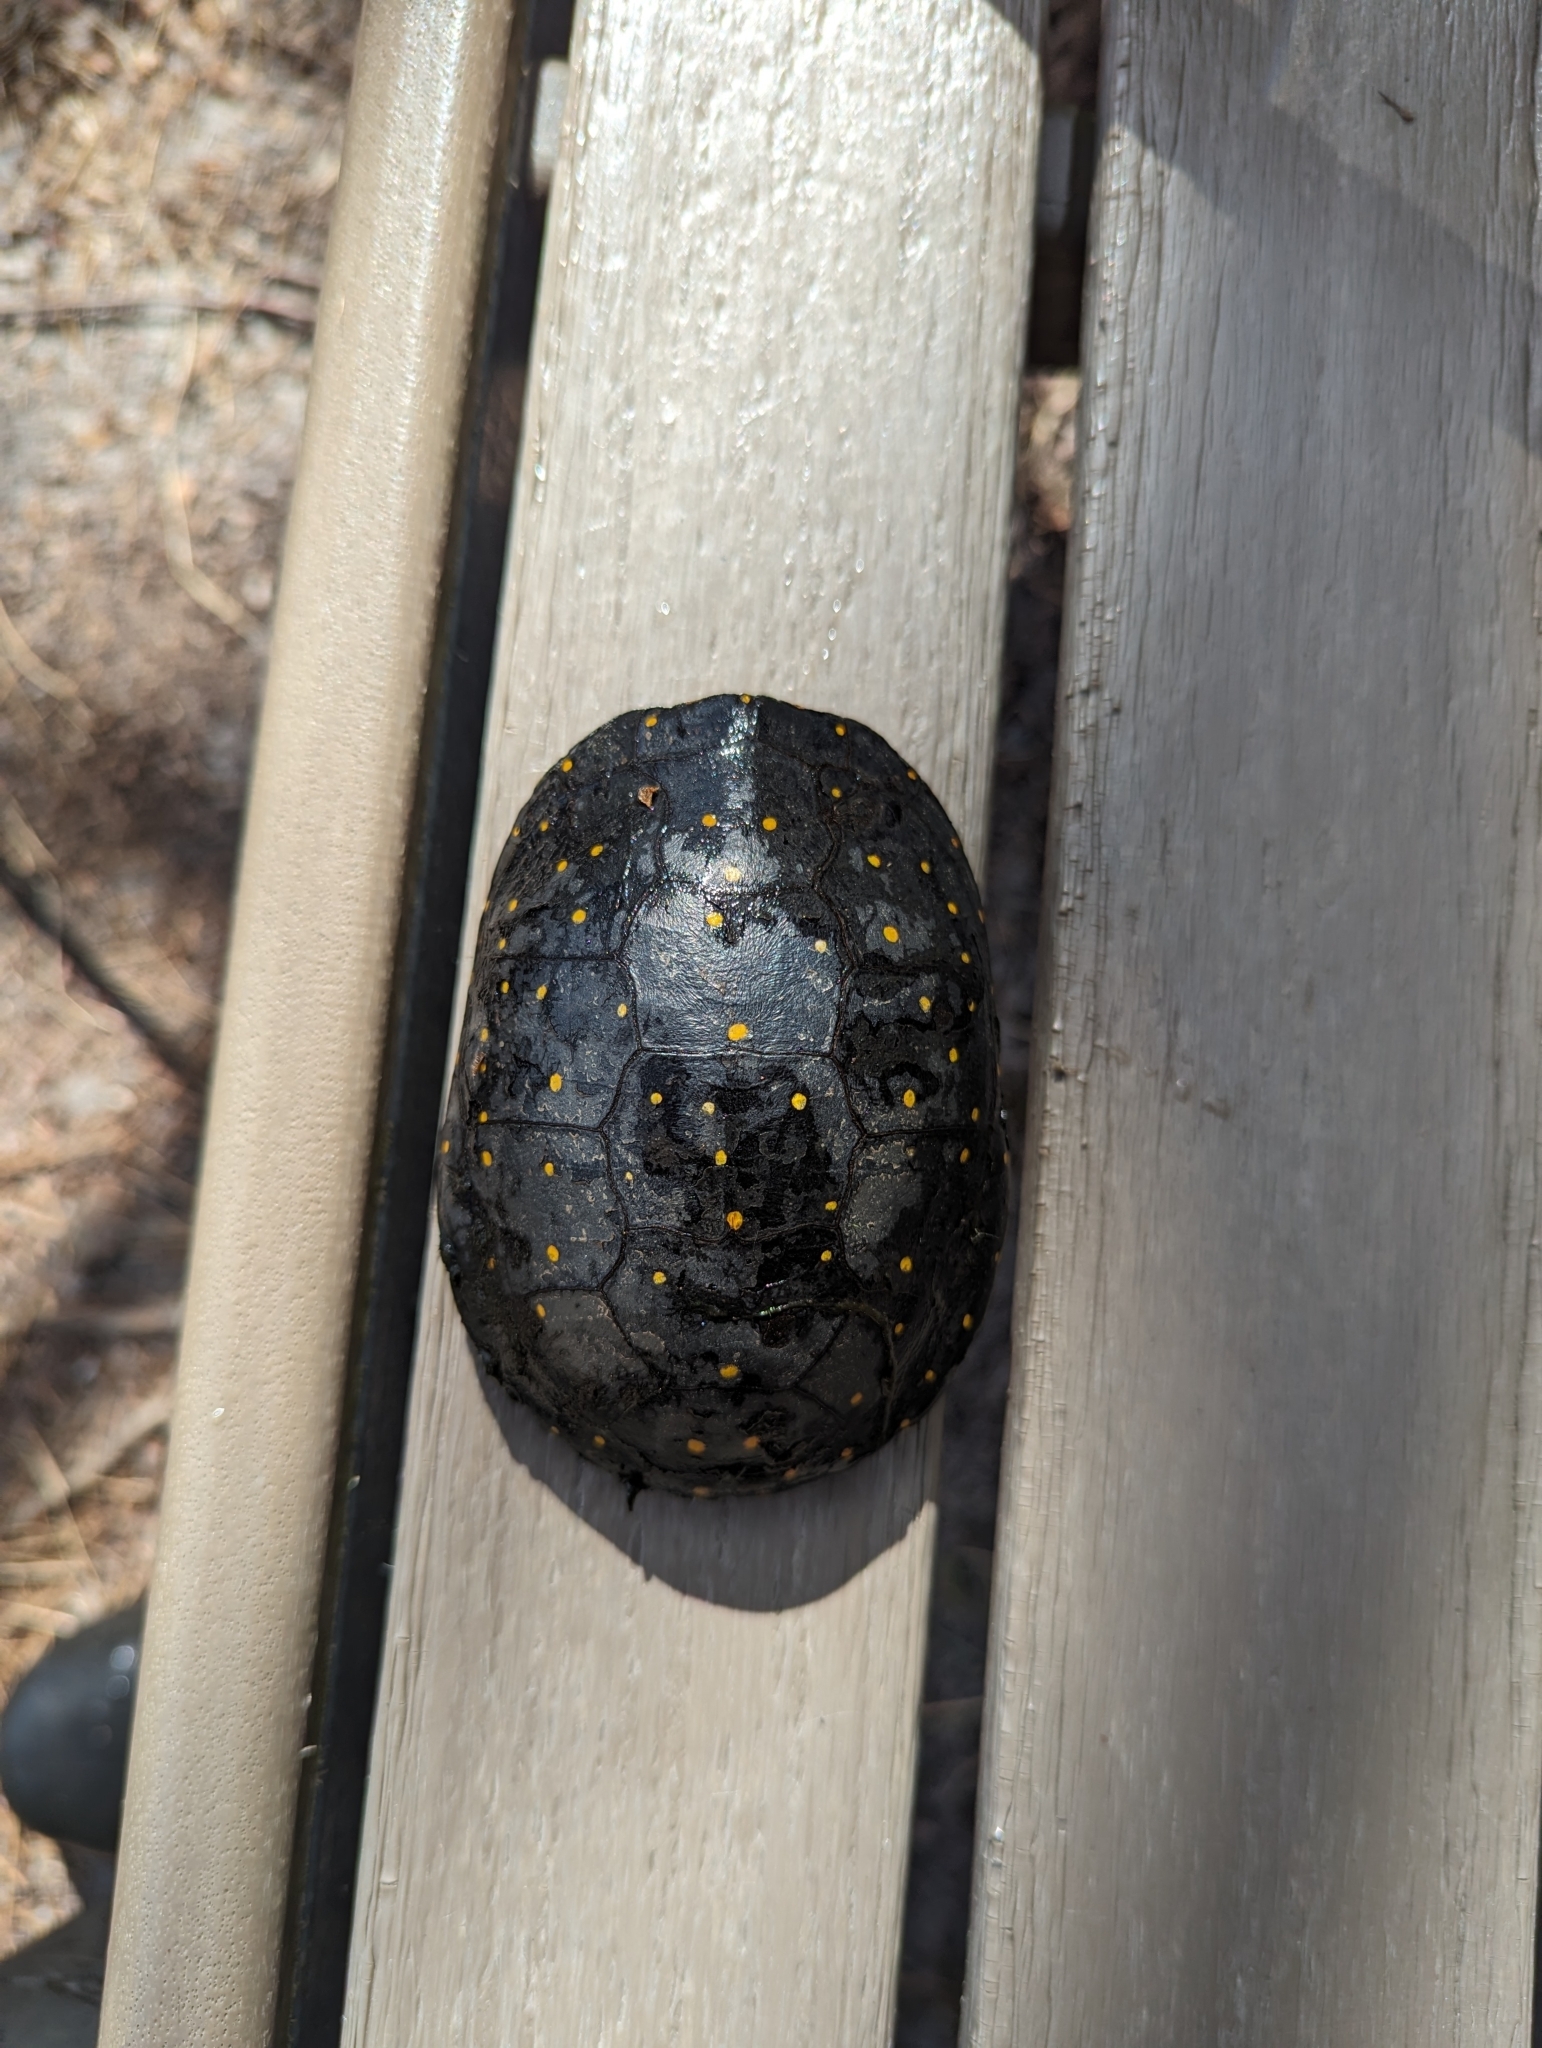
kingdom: Animalia
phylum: Chordata
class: Testudines
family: Emydidae
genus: Clemmys
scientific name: Clemmys guttata
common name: Spotted turtle
